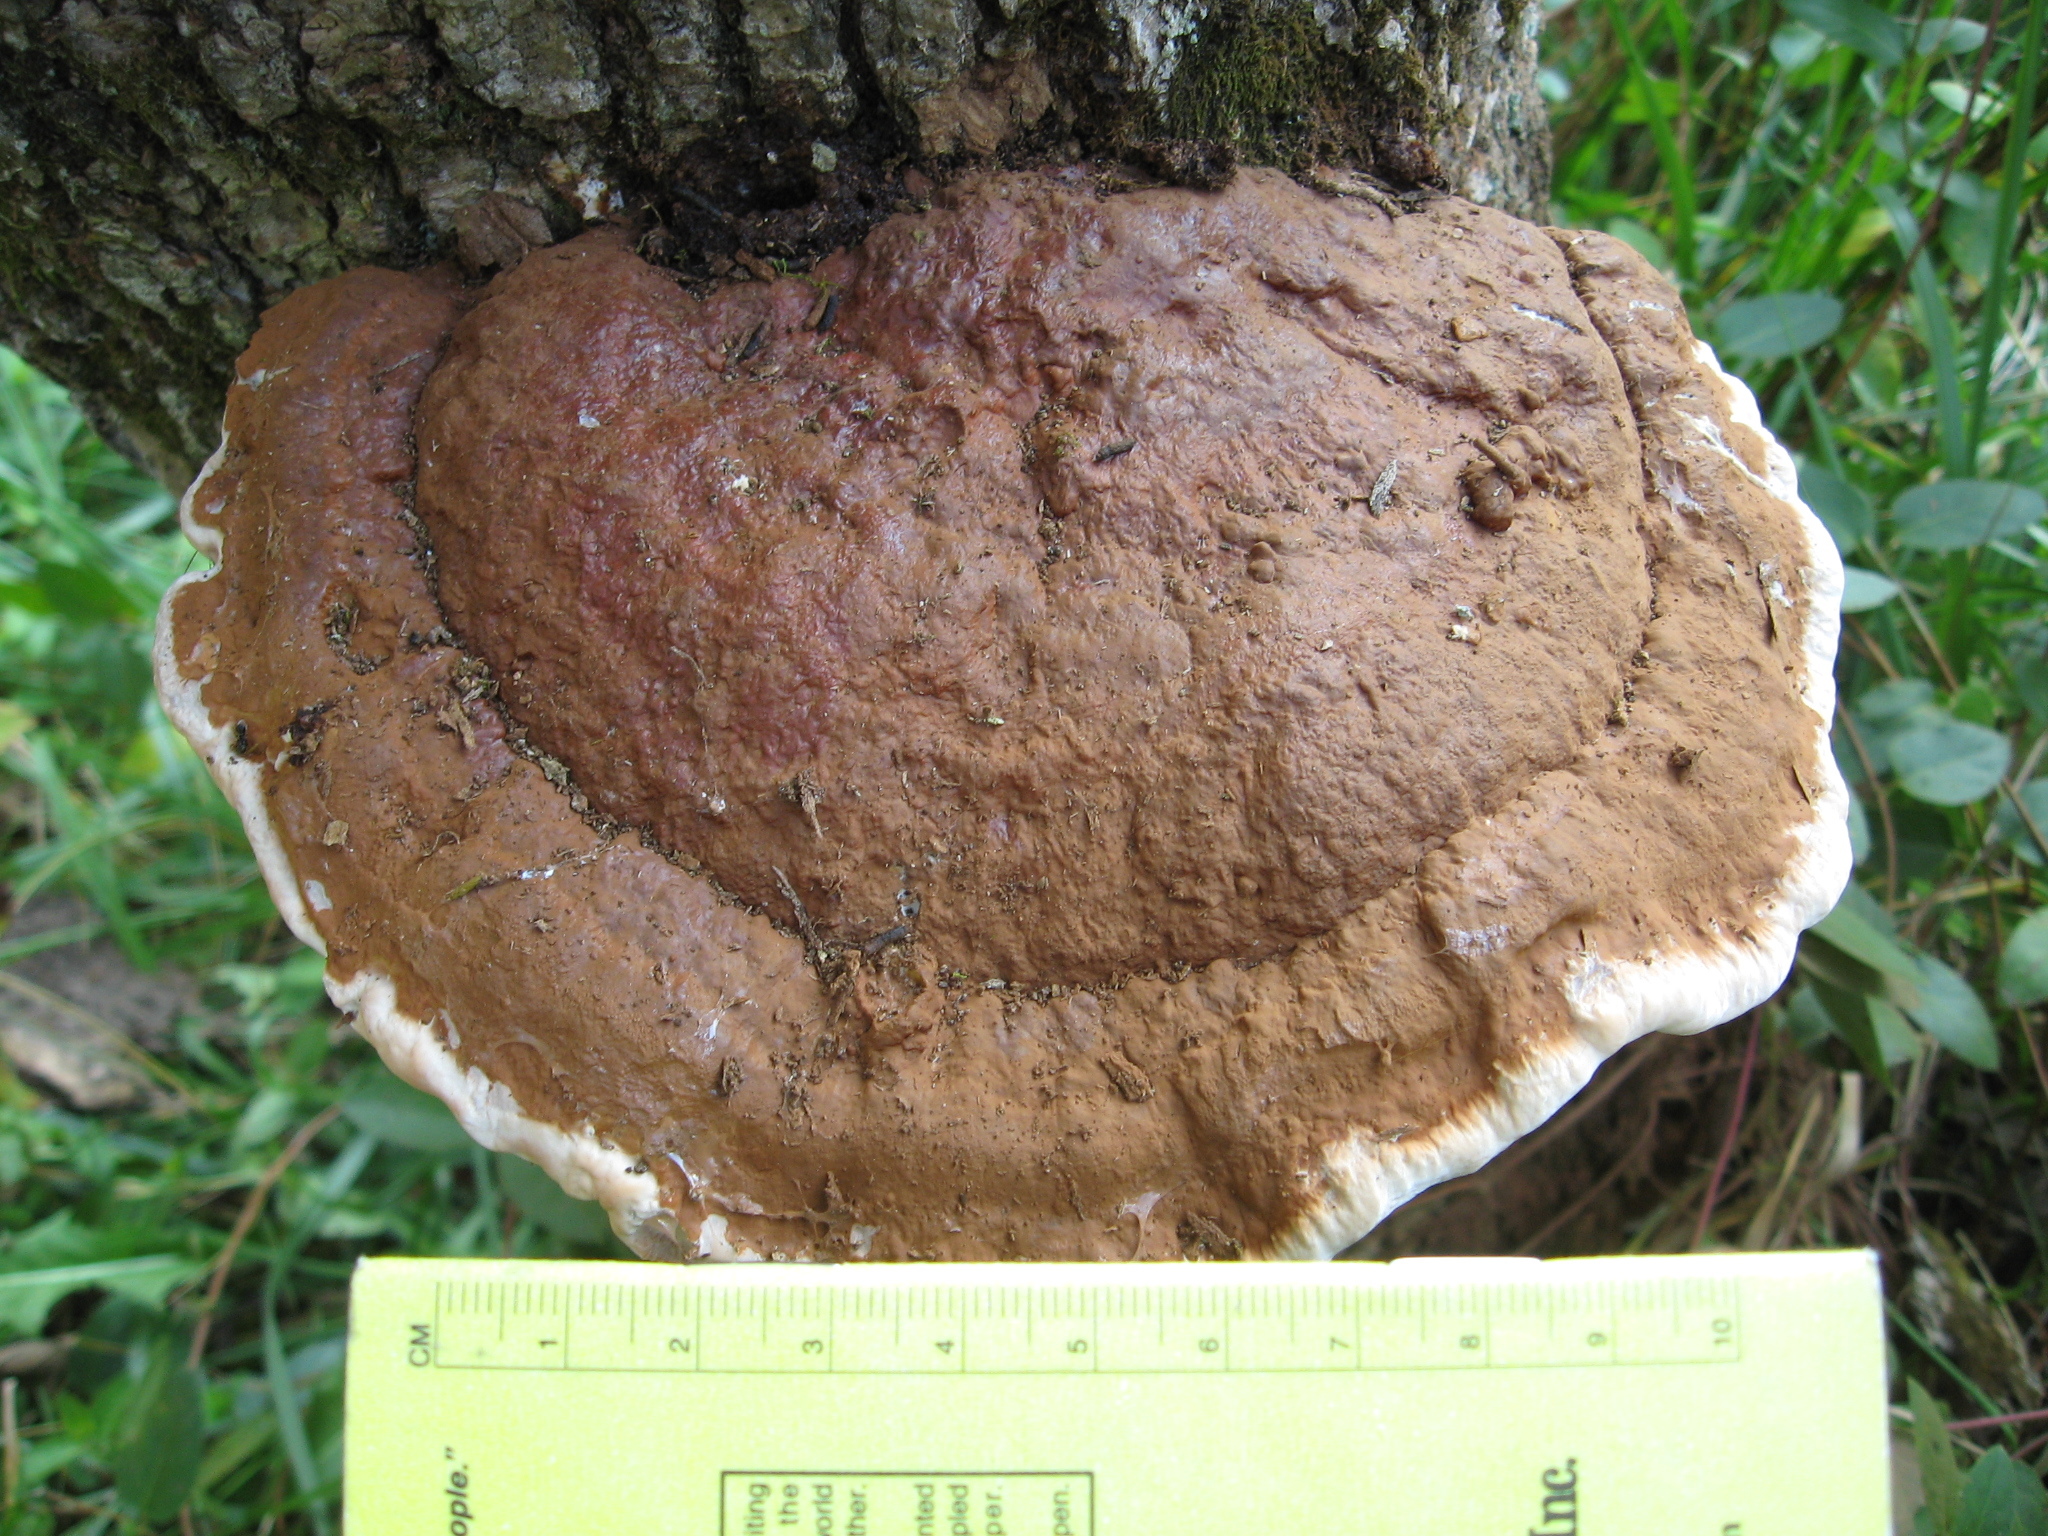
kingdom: Fungi
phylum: Basidiomycota
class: Agaricomycetes
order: Polyporales
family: Polyporaceae
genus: Ganoderma
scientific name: Ganoderma applanatum
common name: Artist's bracket
